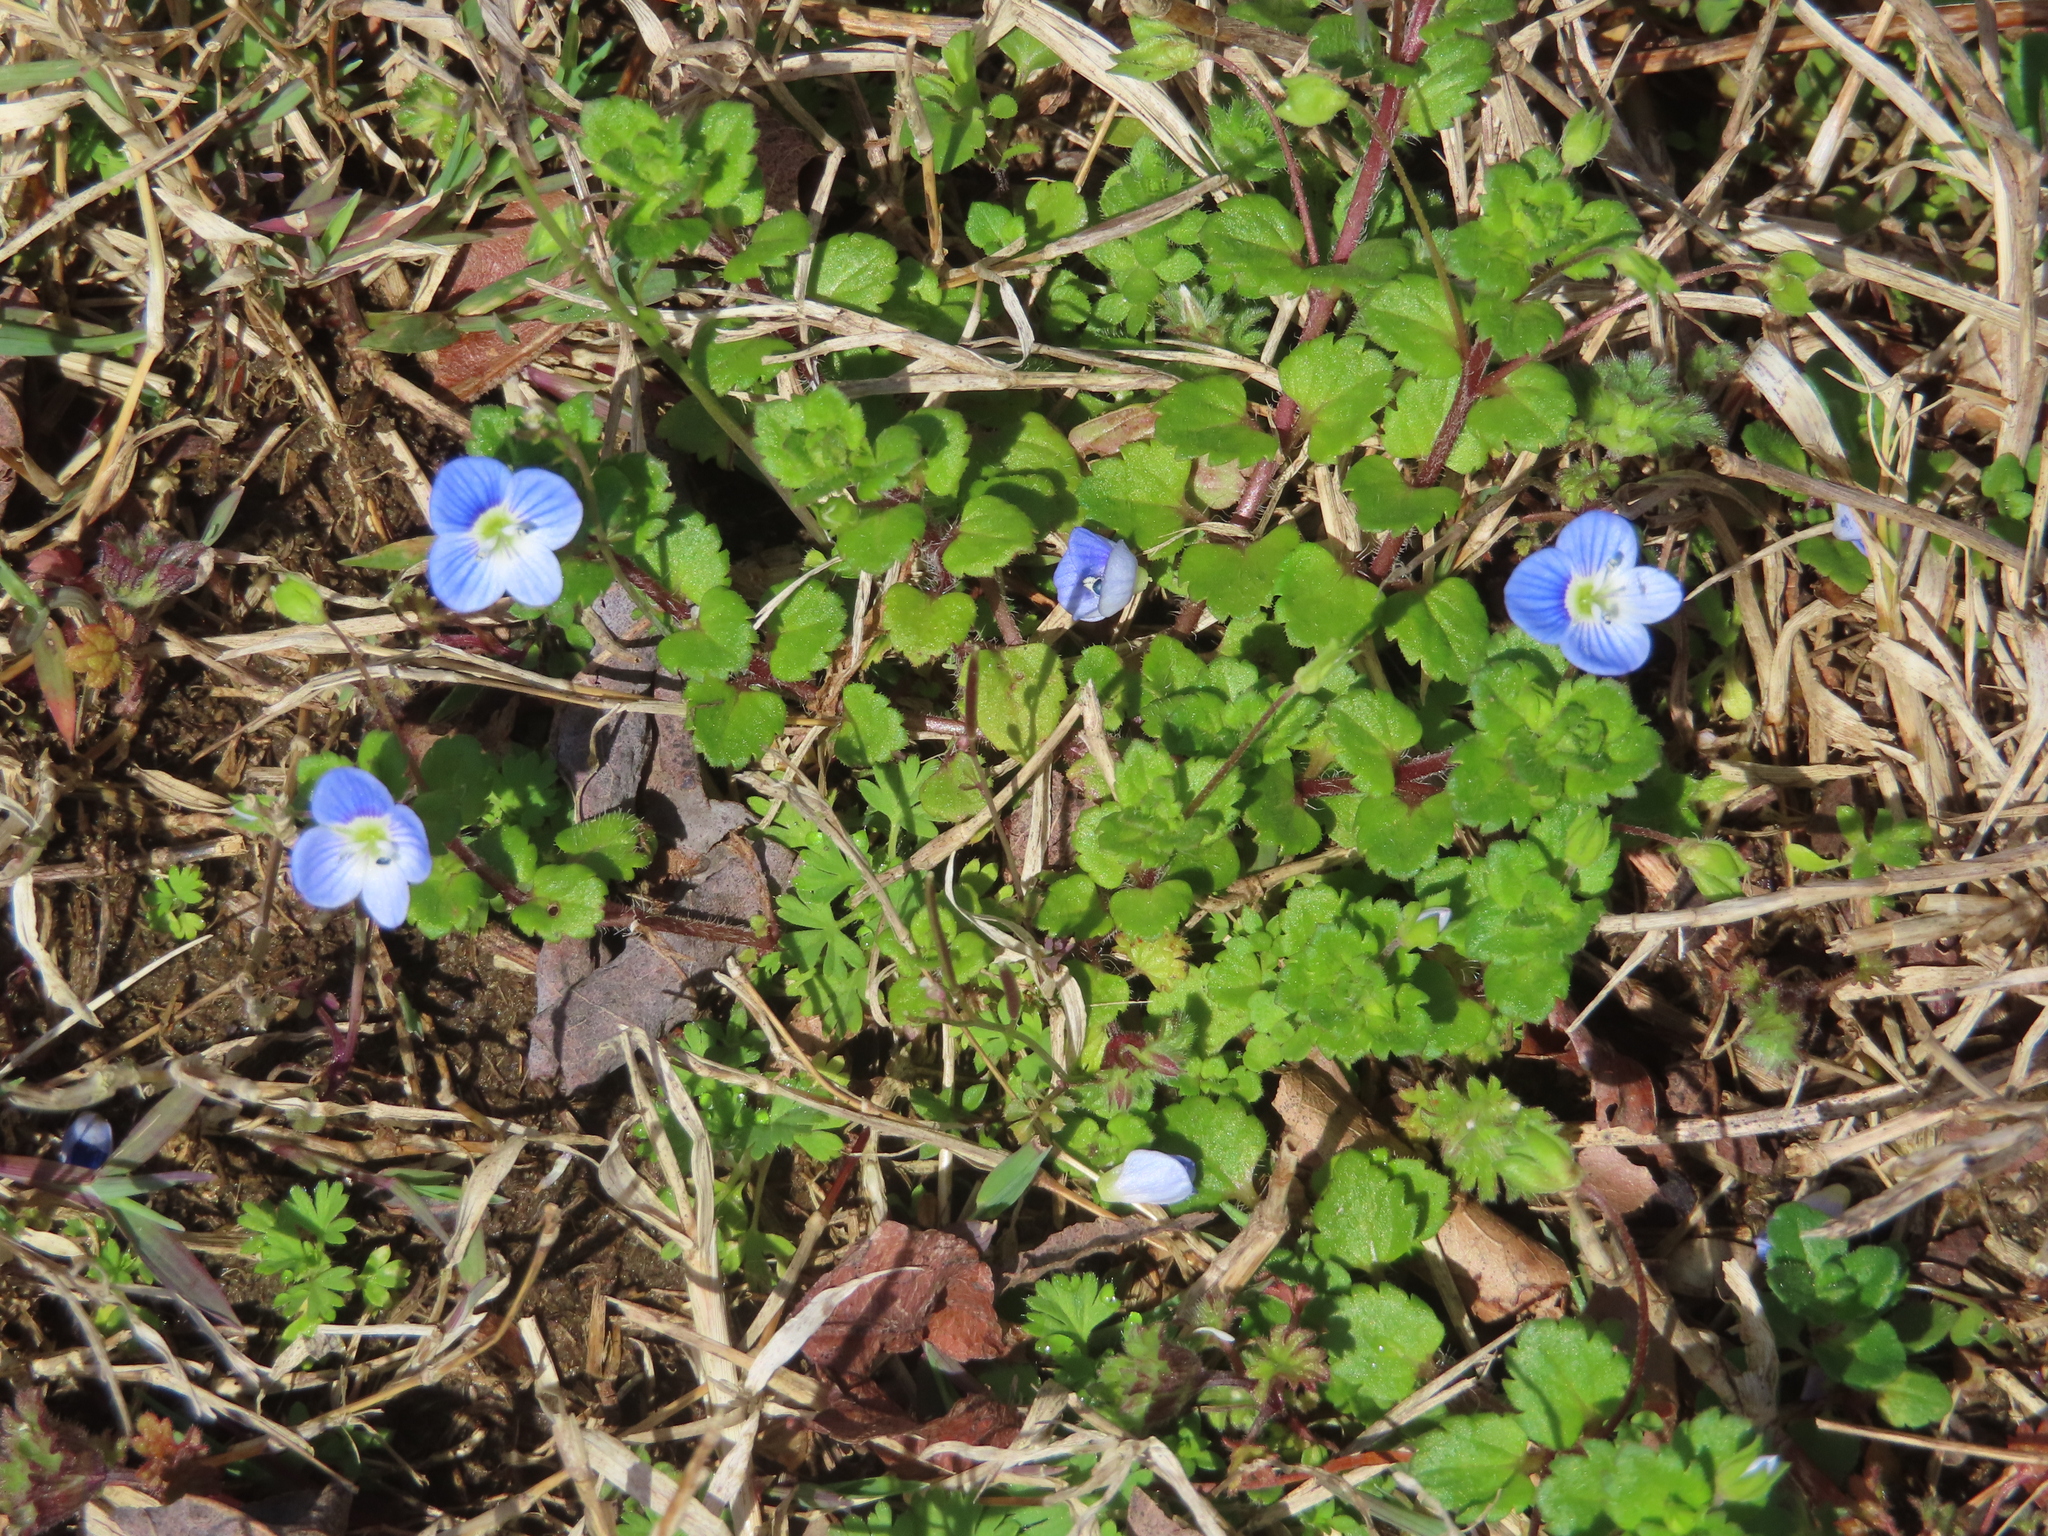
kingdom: Plantae
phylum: Tracheophyta
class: Magnoliopsida
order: Lamiales
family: Plantaginaceae
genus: Veronica
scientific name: Veronica persica
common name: Common field-speedwell
